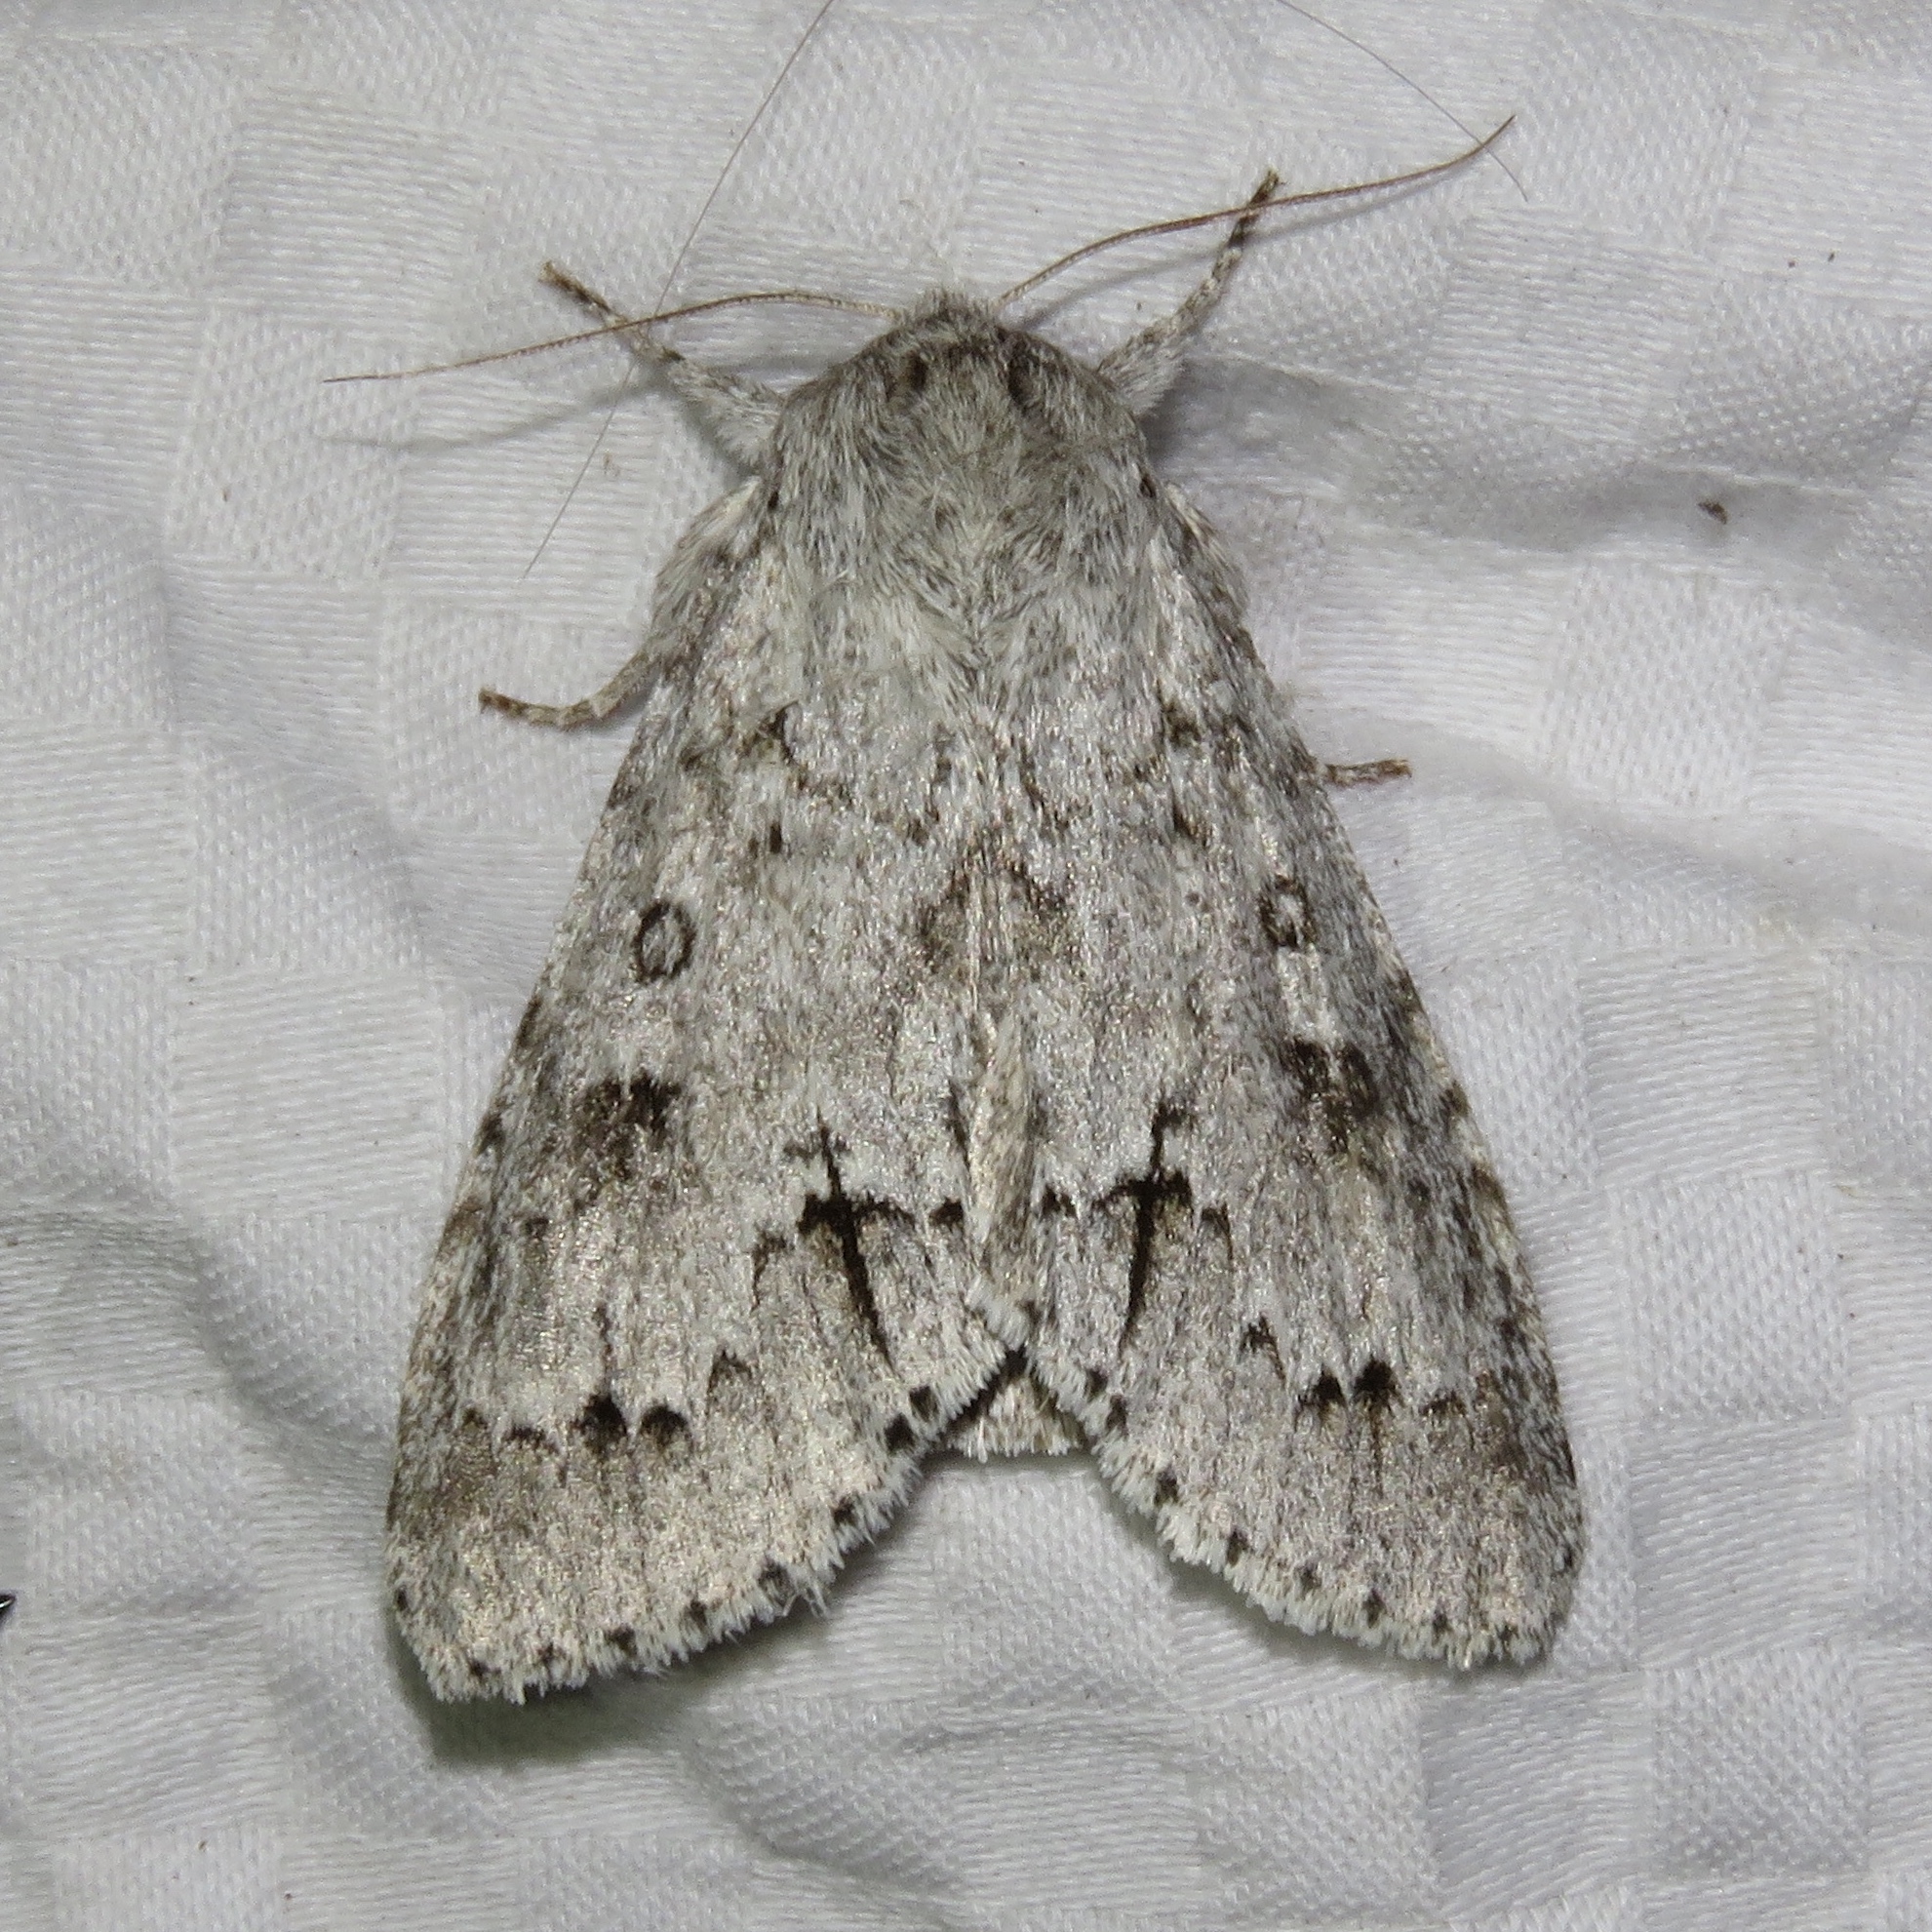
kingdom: Animalia
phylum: Arthropoda
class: Insecta
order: Lepidoptera
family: Noctuidae
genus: Acronicta
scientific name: Acronicta insita
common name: Large gray dagger
